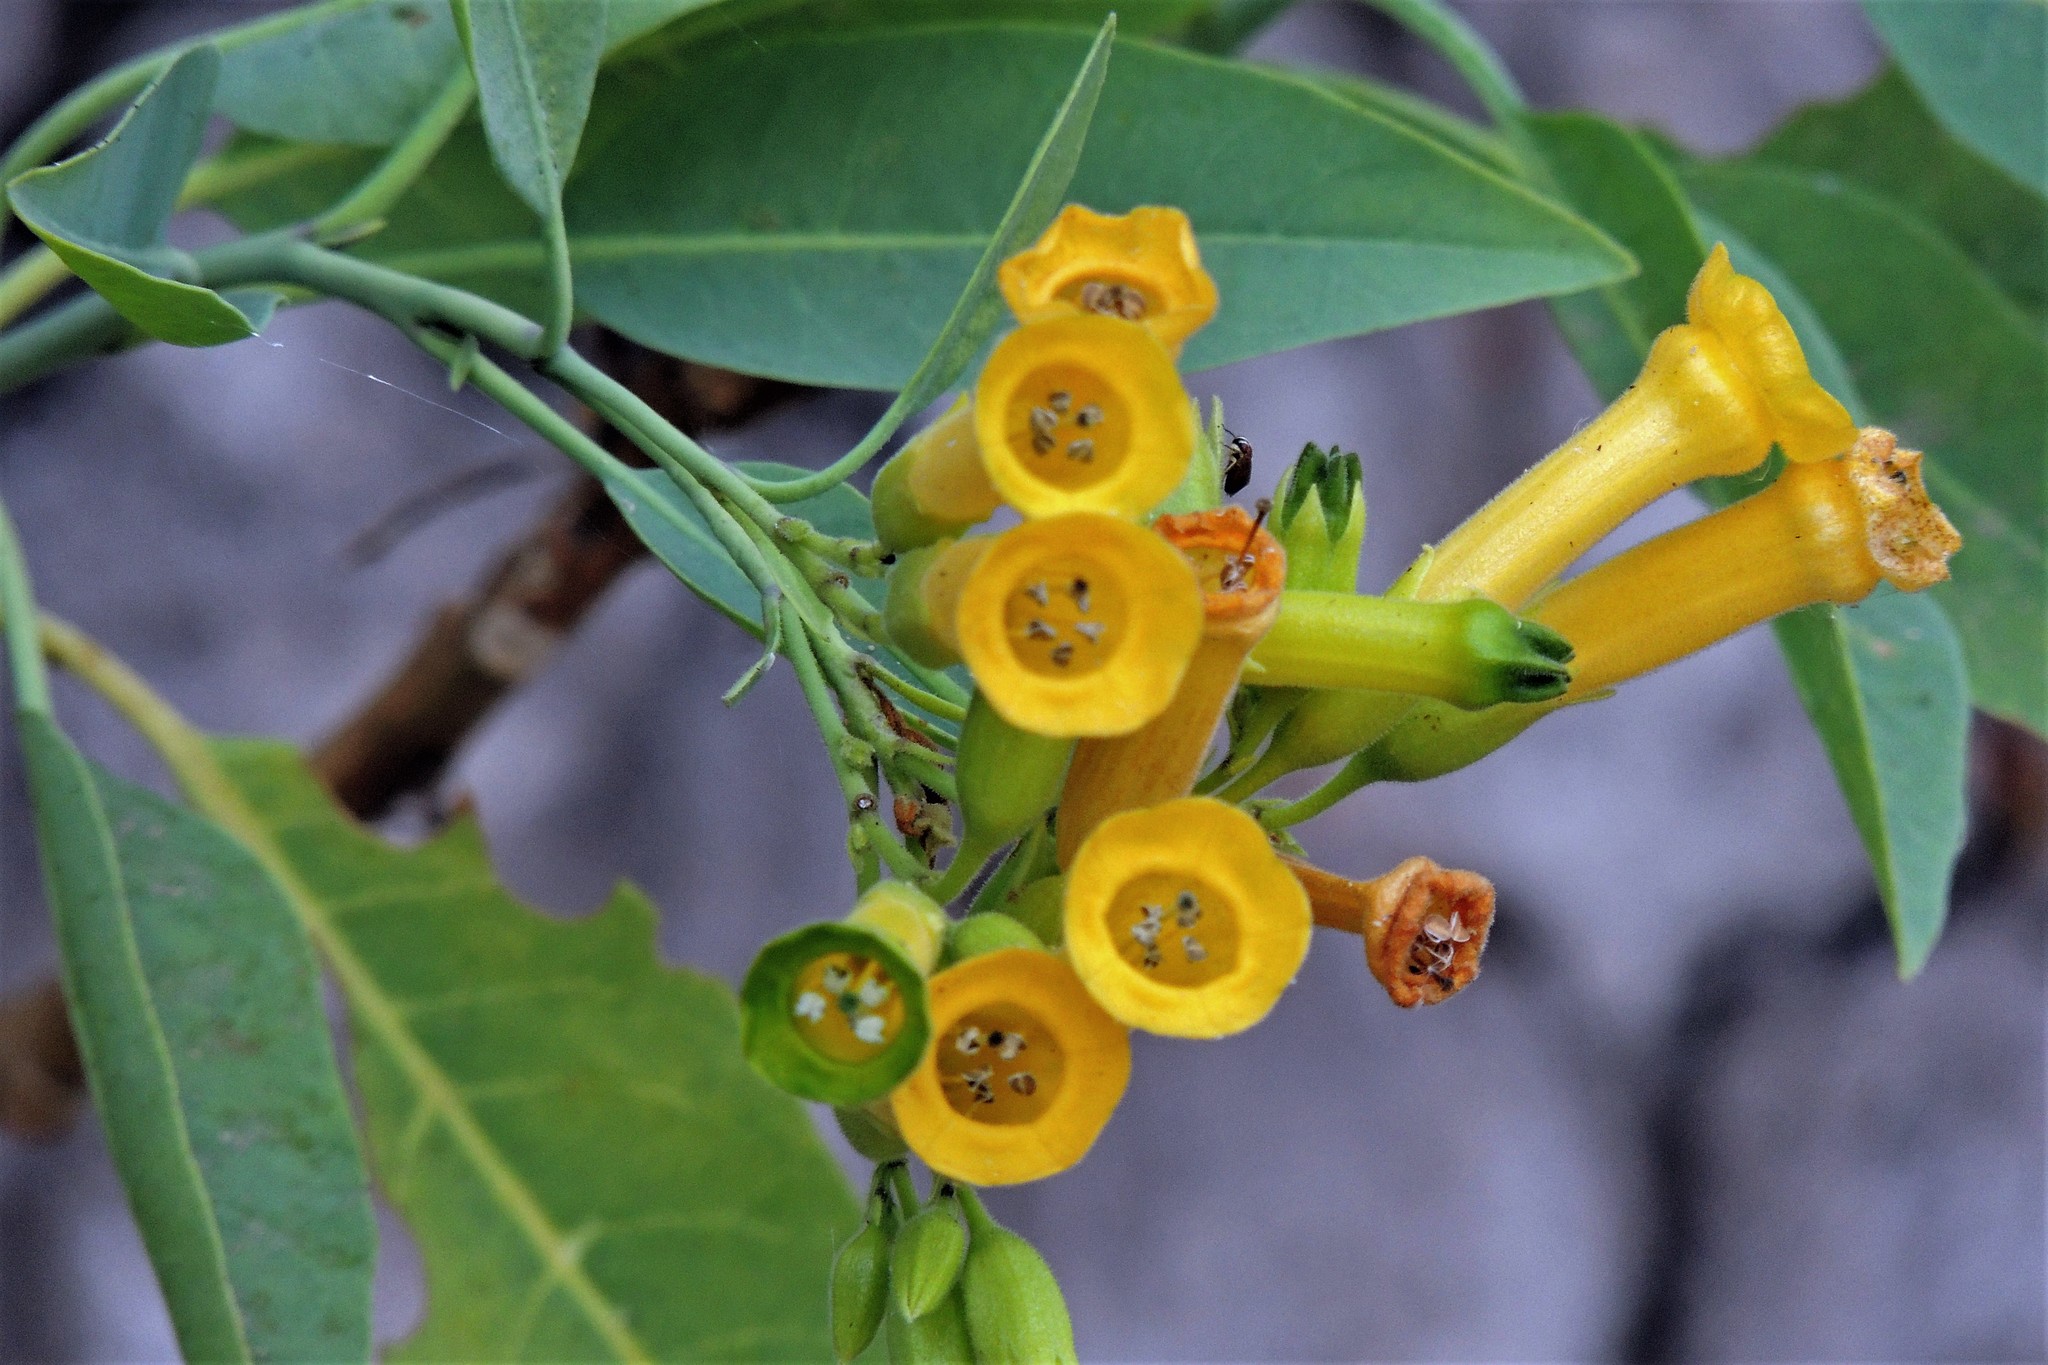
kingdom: Plantae
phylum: Tracheophyta
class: Magnoliopsida
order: Solanales
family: Solanaceae
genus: Nicotiana
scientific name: Nicotiana glauca
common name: Tree tobacco
